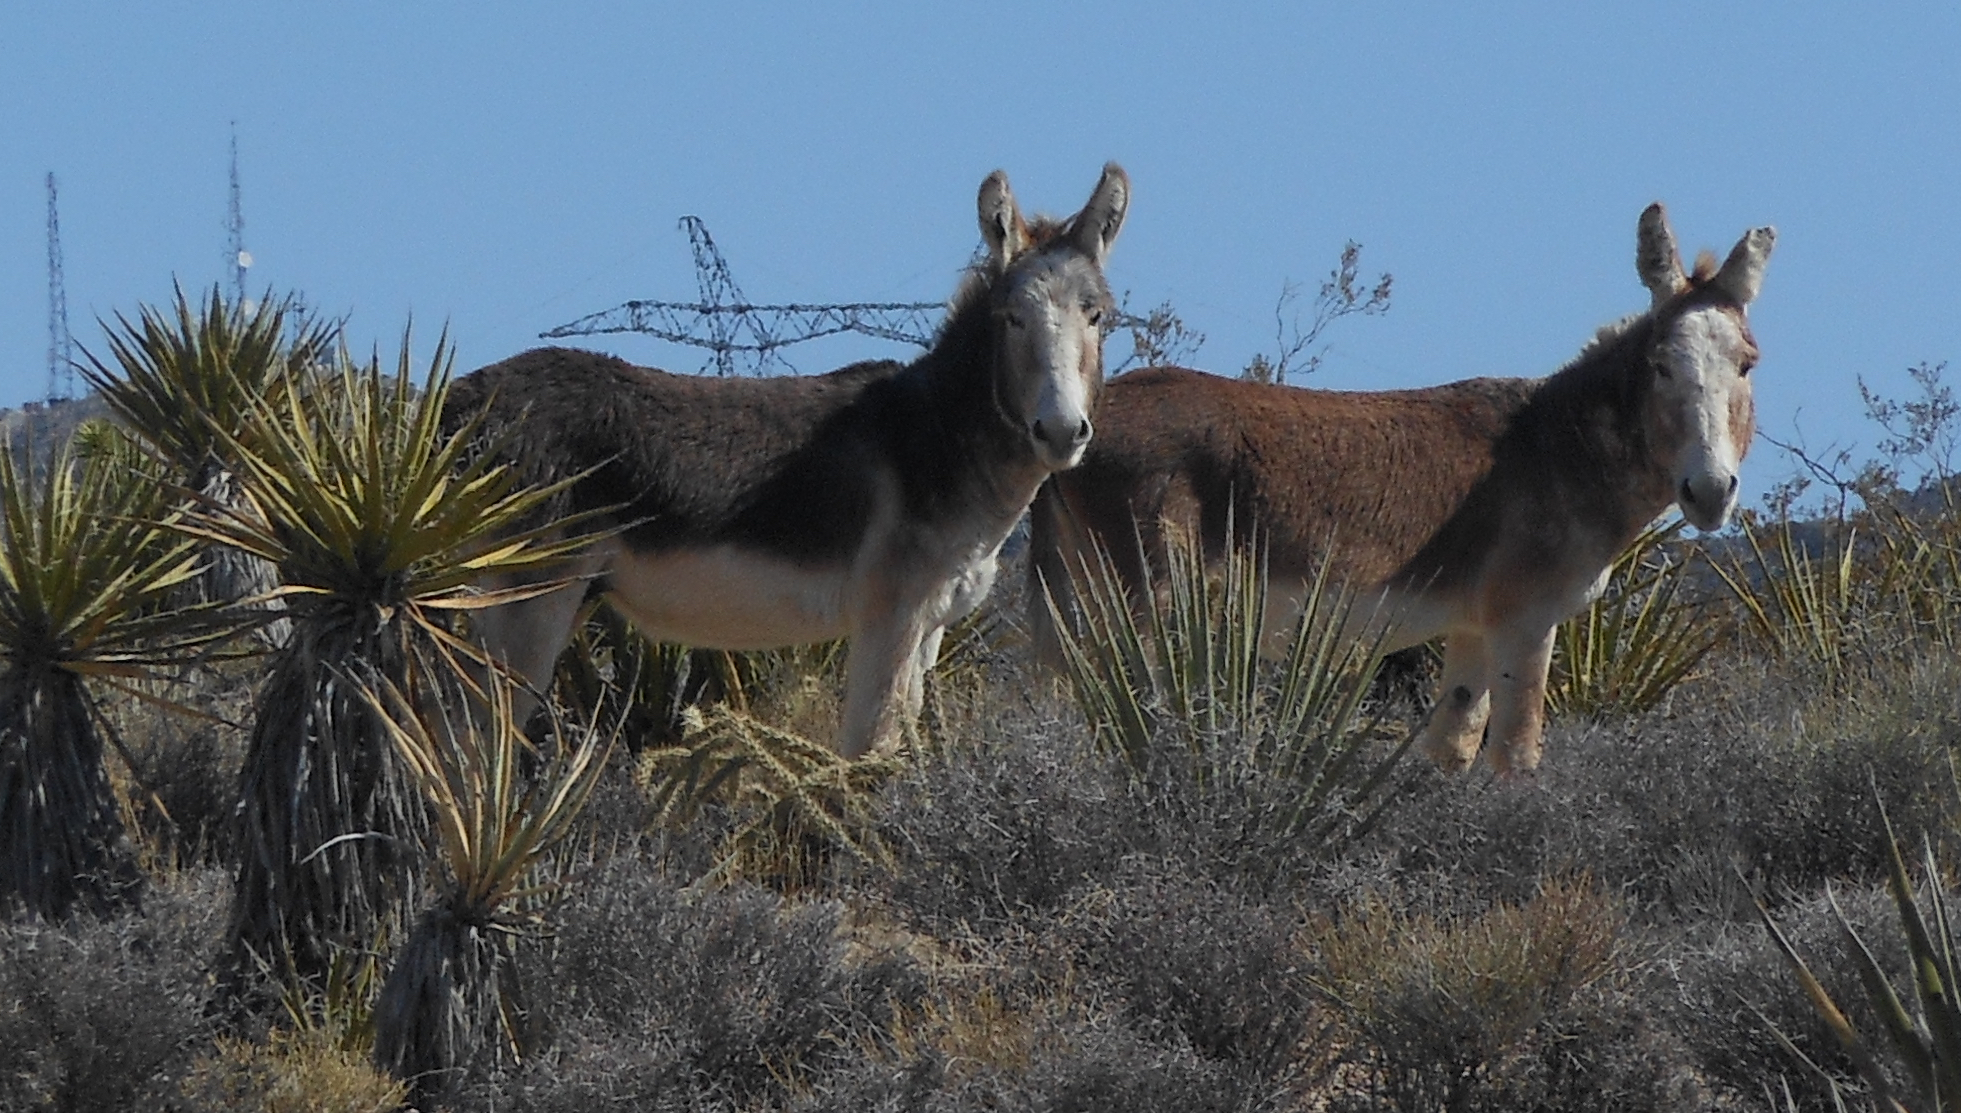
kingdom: Animalia
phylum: Chordata
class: Mammalia
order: Perissodactyla
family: Equidae
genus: Equus
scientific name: Equus asinus
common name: Ass
